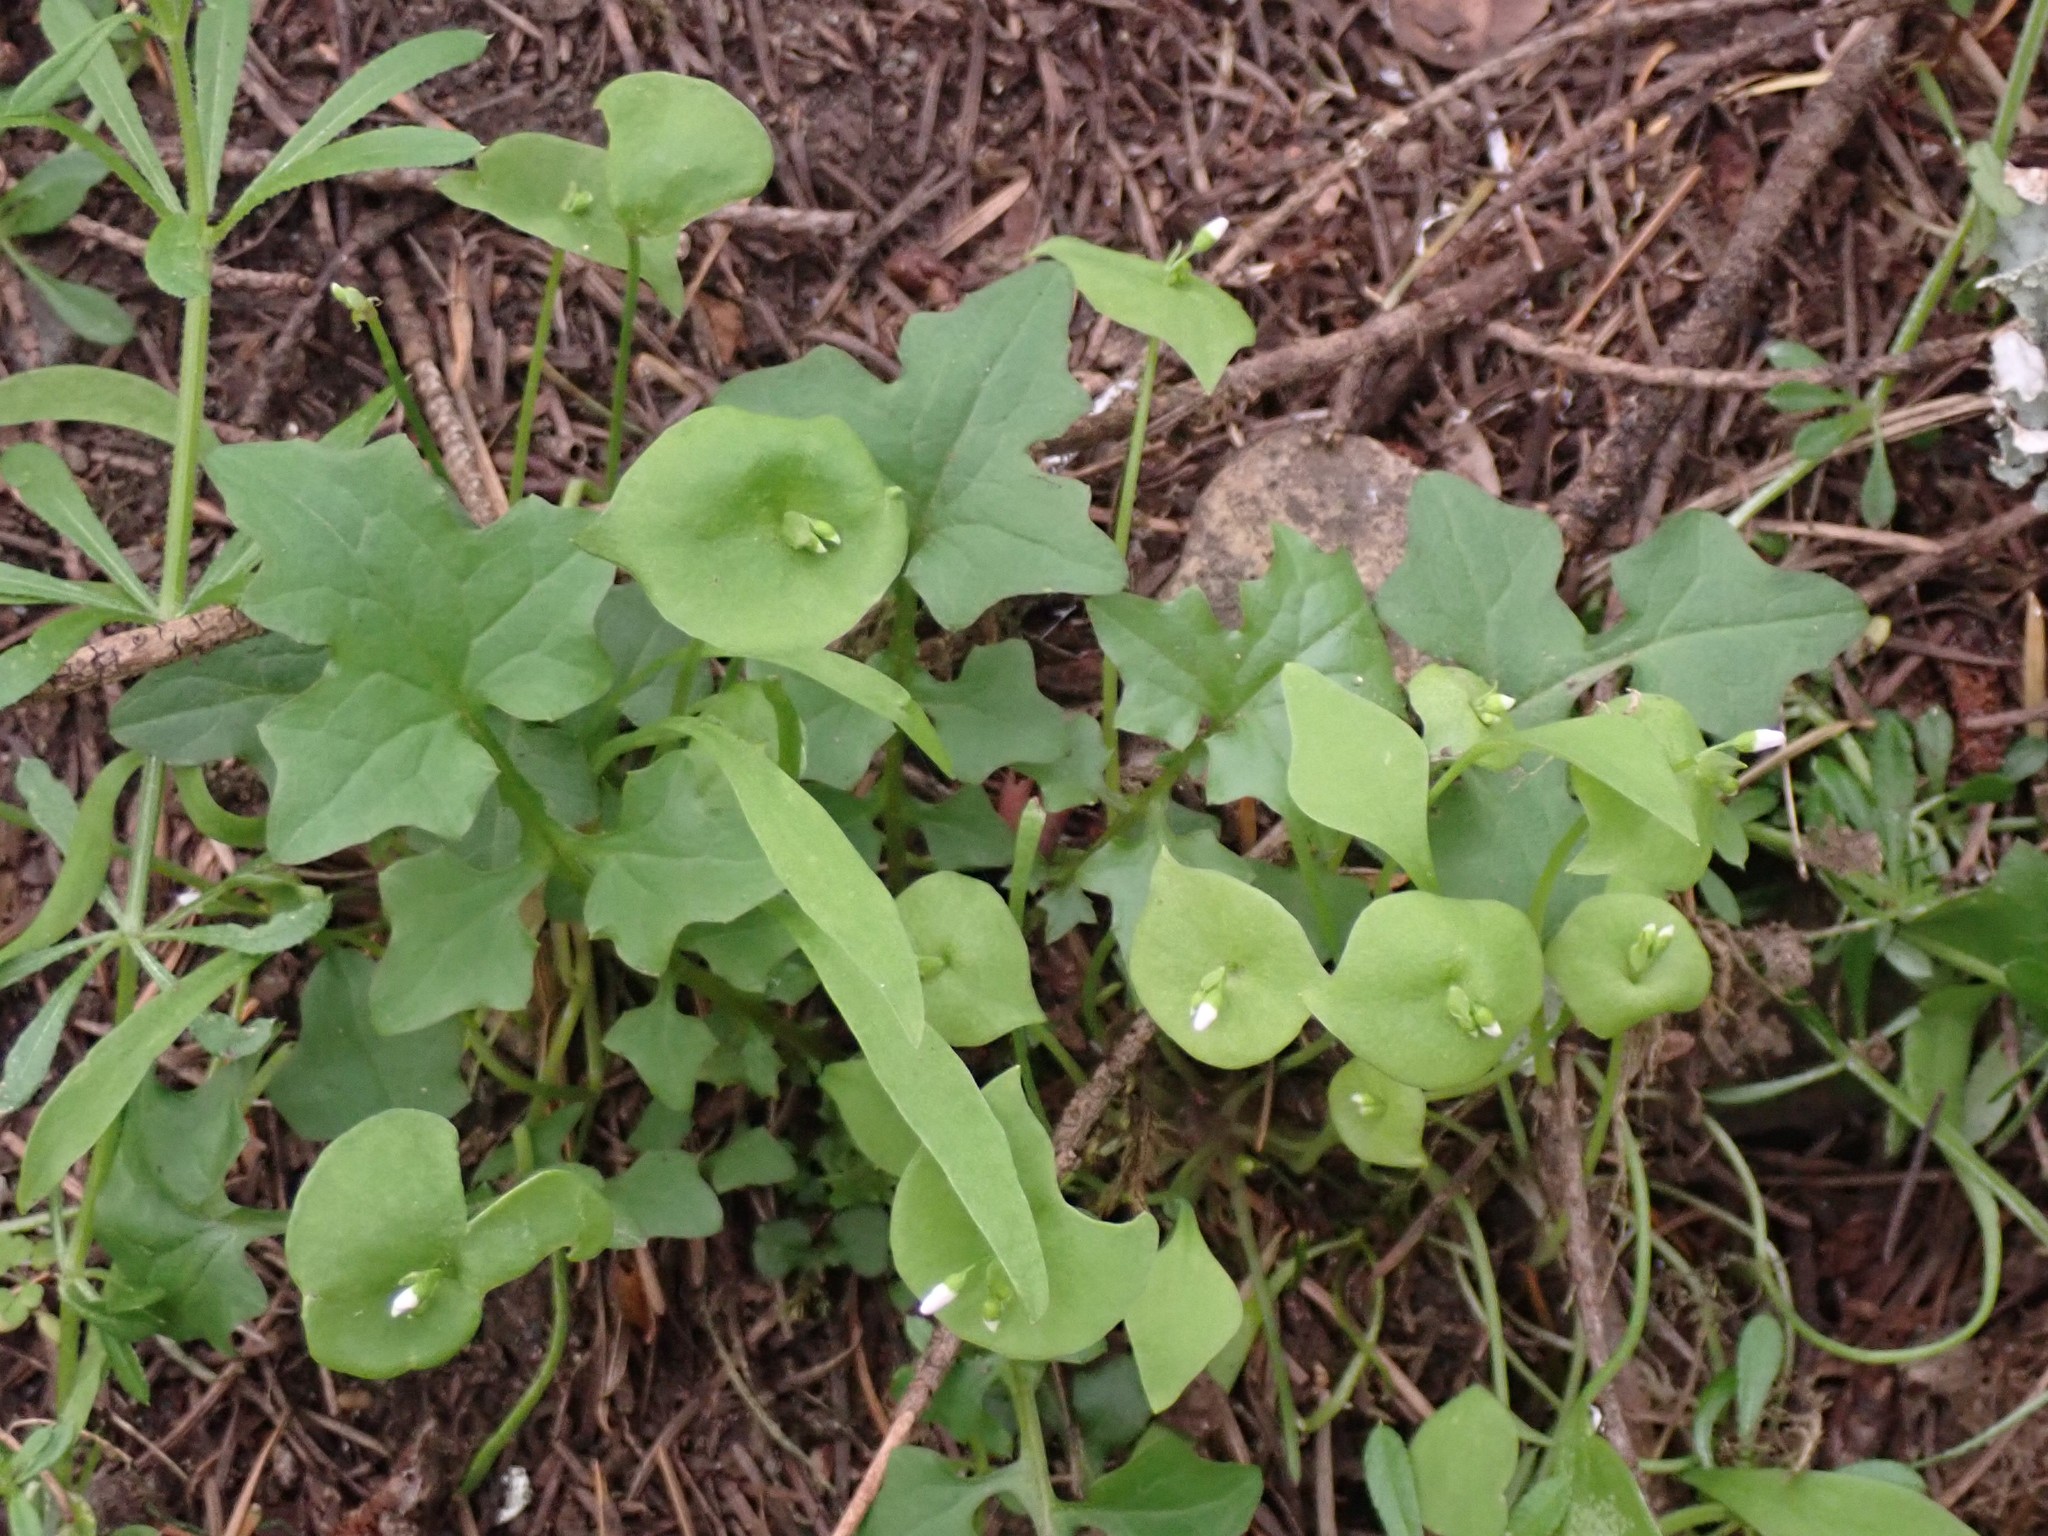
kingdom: Plantae
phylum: Tracheophyta
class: Magnoliopsida
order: Caryophyllales
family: Montiaceae
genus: Claytonia
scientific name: Claytonia perfoliata
